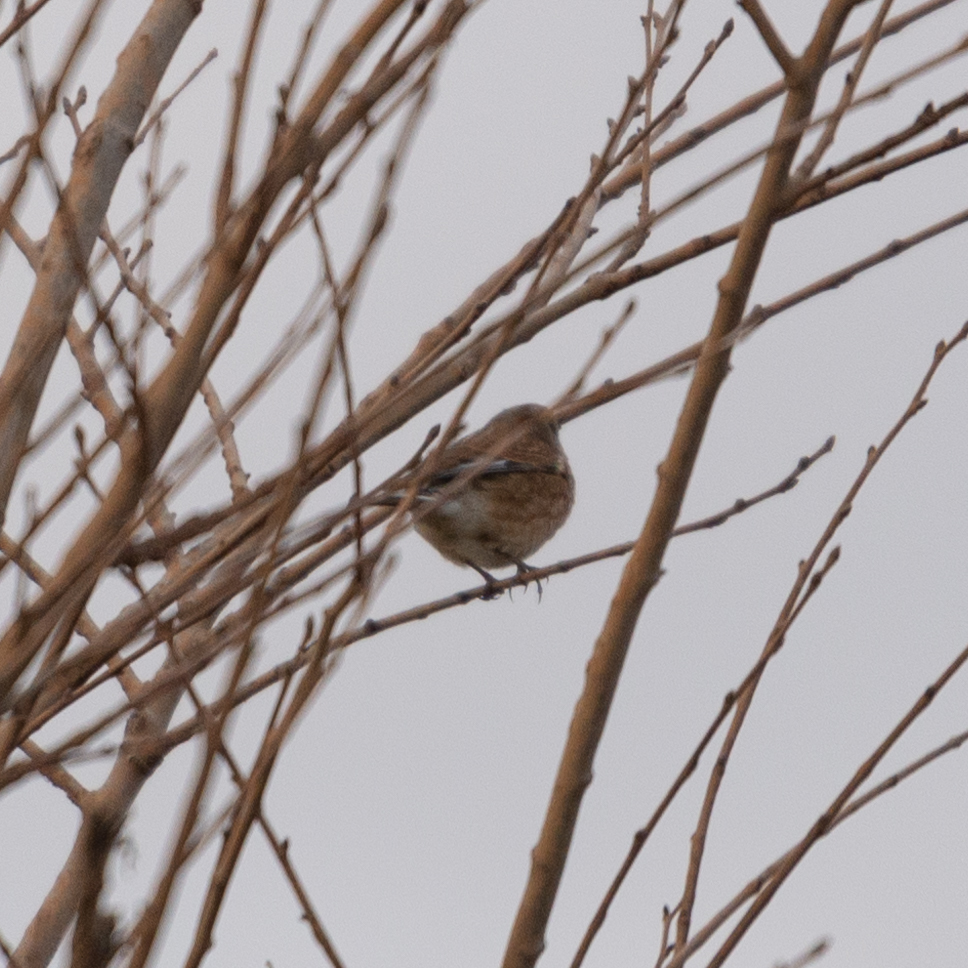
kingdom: Animalia
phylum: Chordata
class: Aves
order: Passeriformes
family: Fringillidae
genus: Linaria
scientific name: Linaria cannabina
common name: Common linnet
